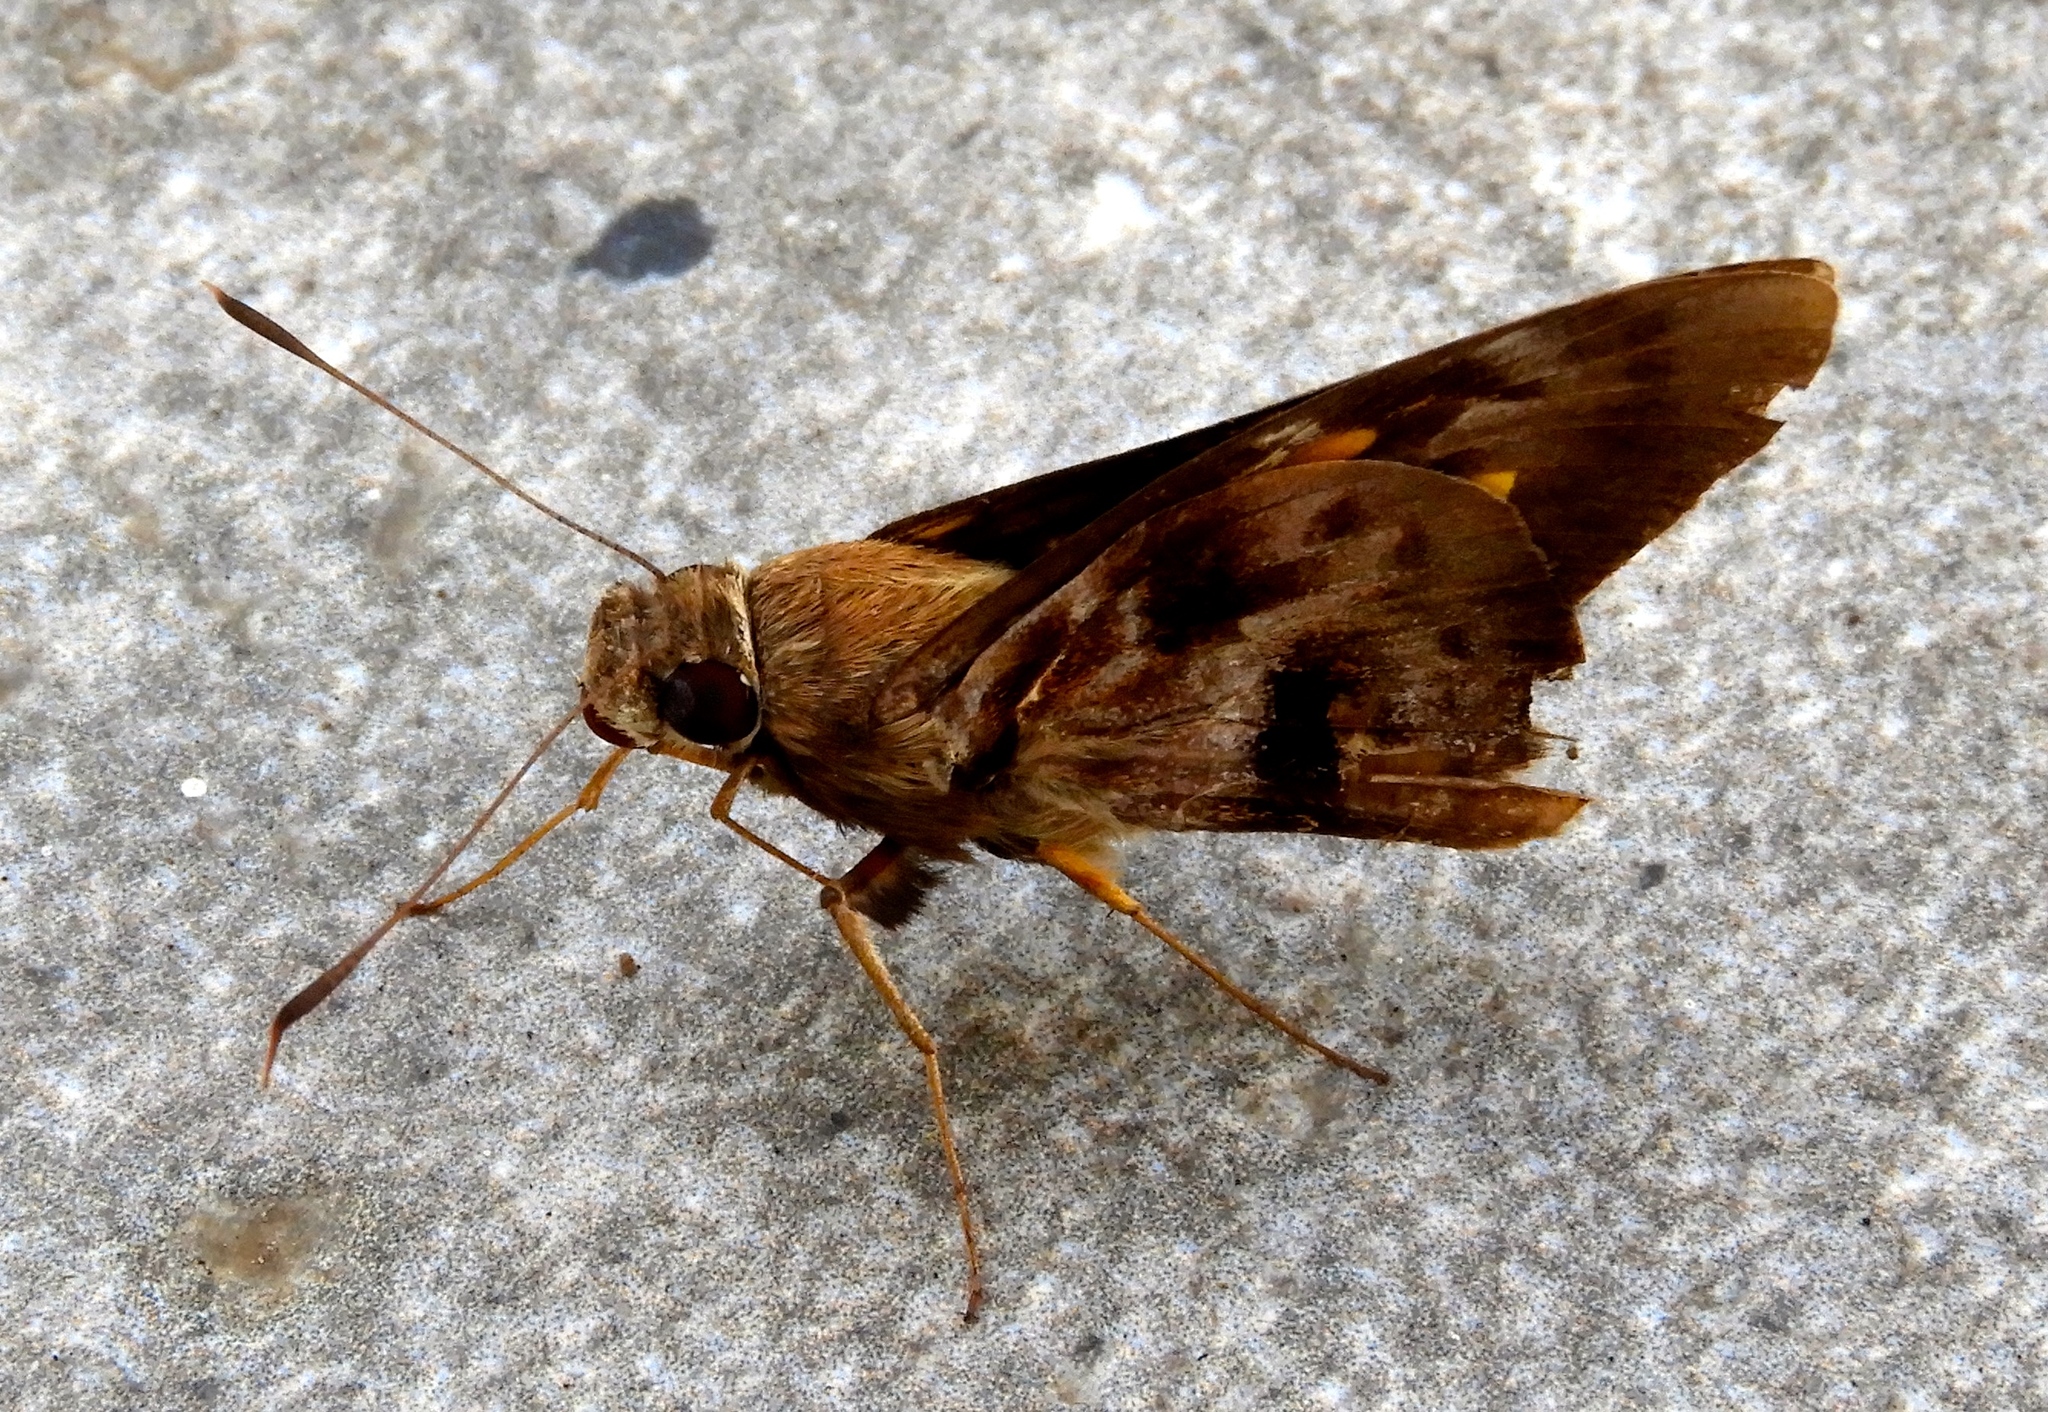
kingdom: Animalia
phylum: Arthropoda
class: Insecta
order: Lepidoptera
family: Hesperiidae
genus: Perichares
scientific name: Perichares philetes
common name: Green-backed ruby-eye
